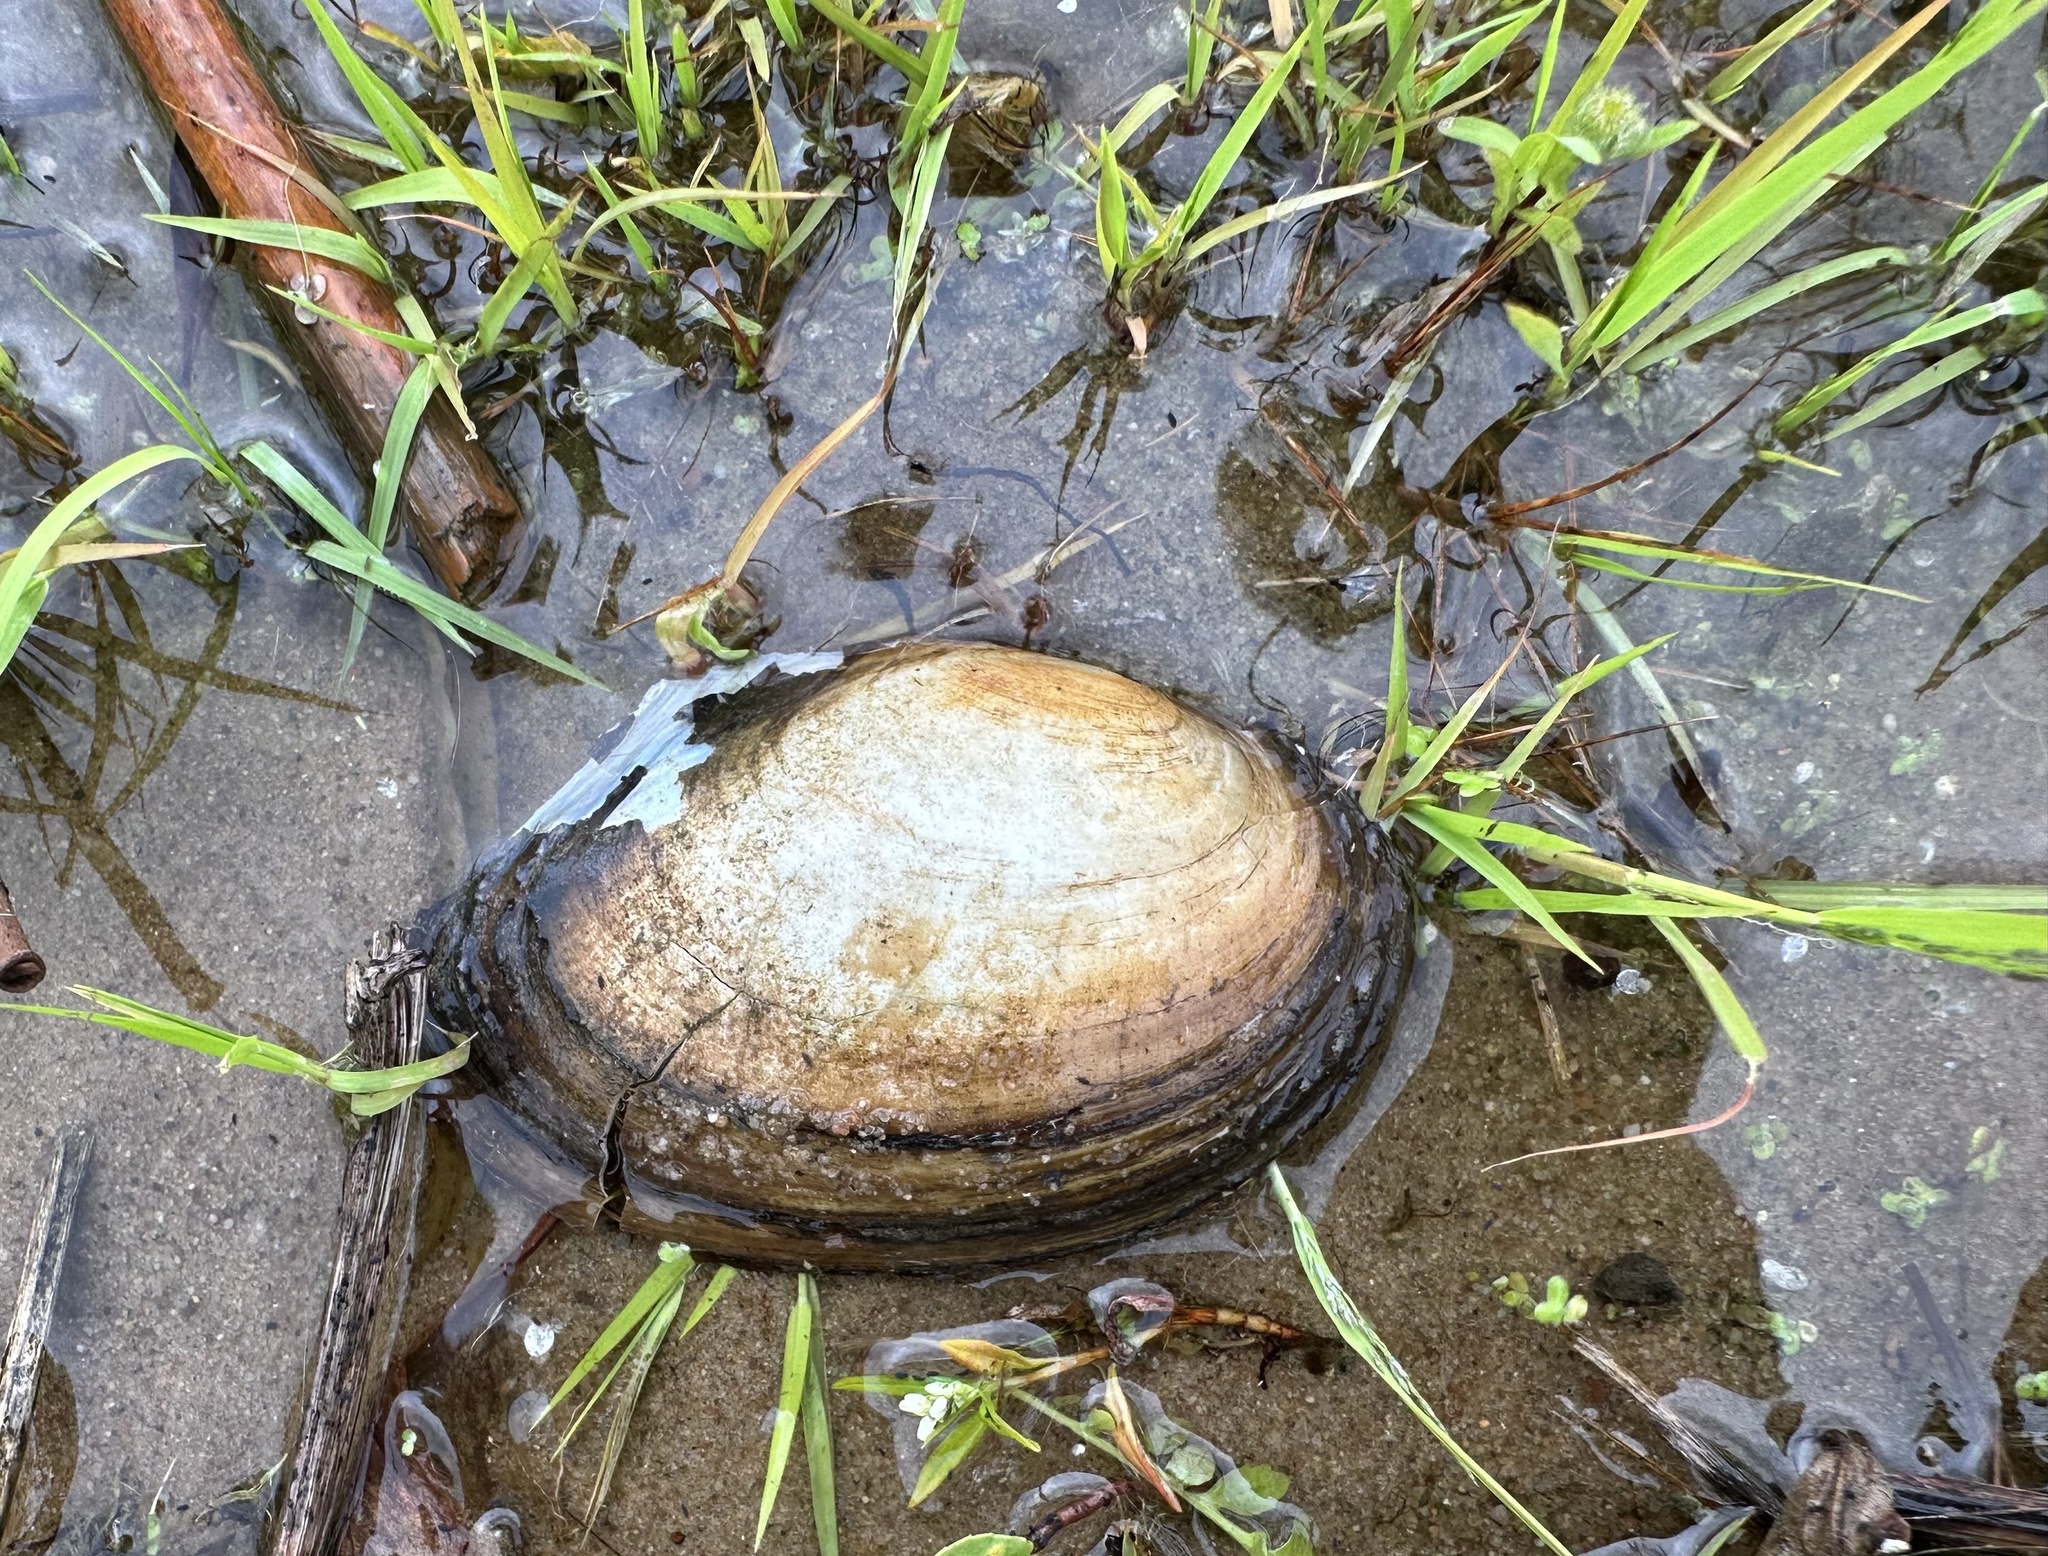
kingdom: Animalia
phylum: Mollusca
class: Bivalvia
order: Unionida
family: Unionidae
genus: Anodonta
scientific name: Anodonta anatina
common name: Duck mussel
